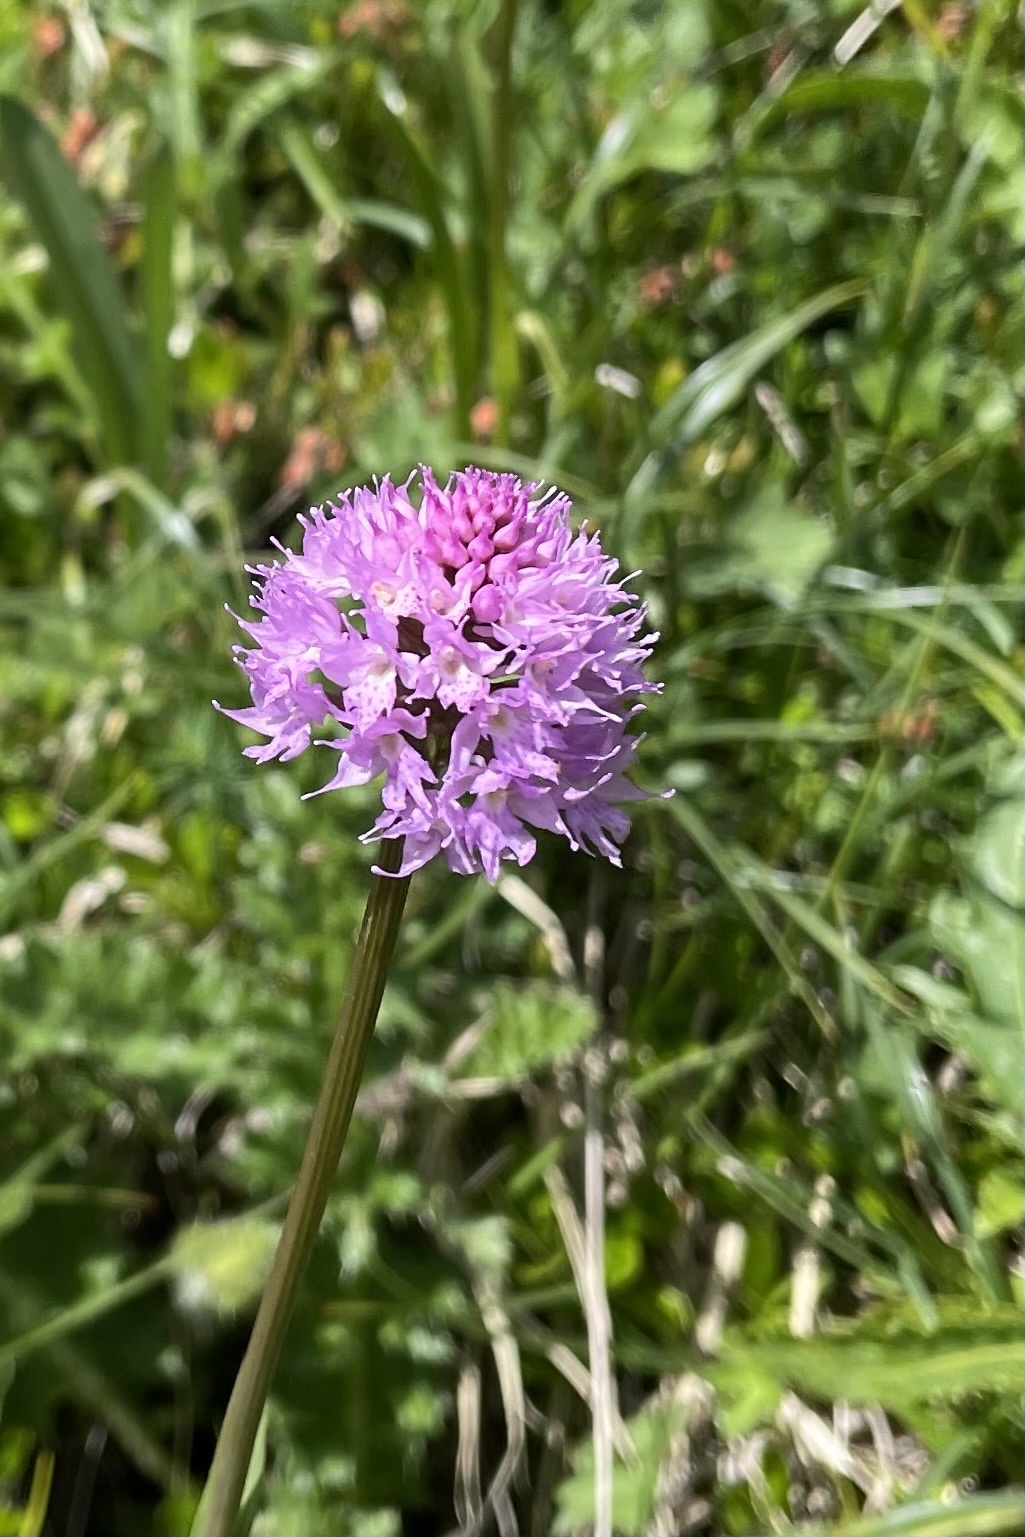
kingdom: Plantae
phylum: Tracheophyta
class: Liliopsida
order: Asparagales
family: Orchidaceae
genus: Traunsteinera
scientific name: Traunsteinera globosa
